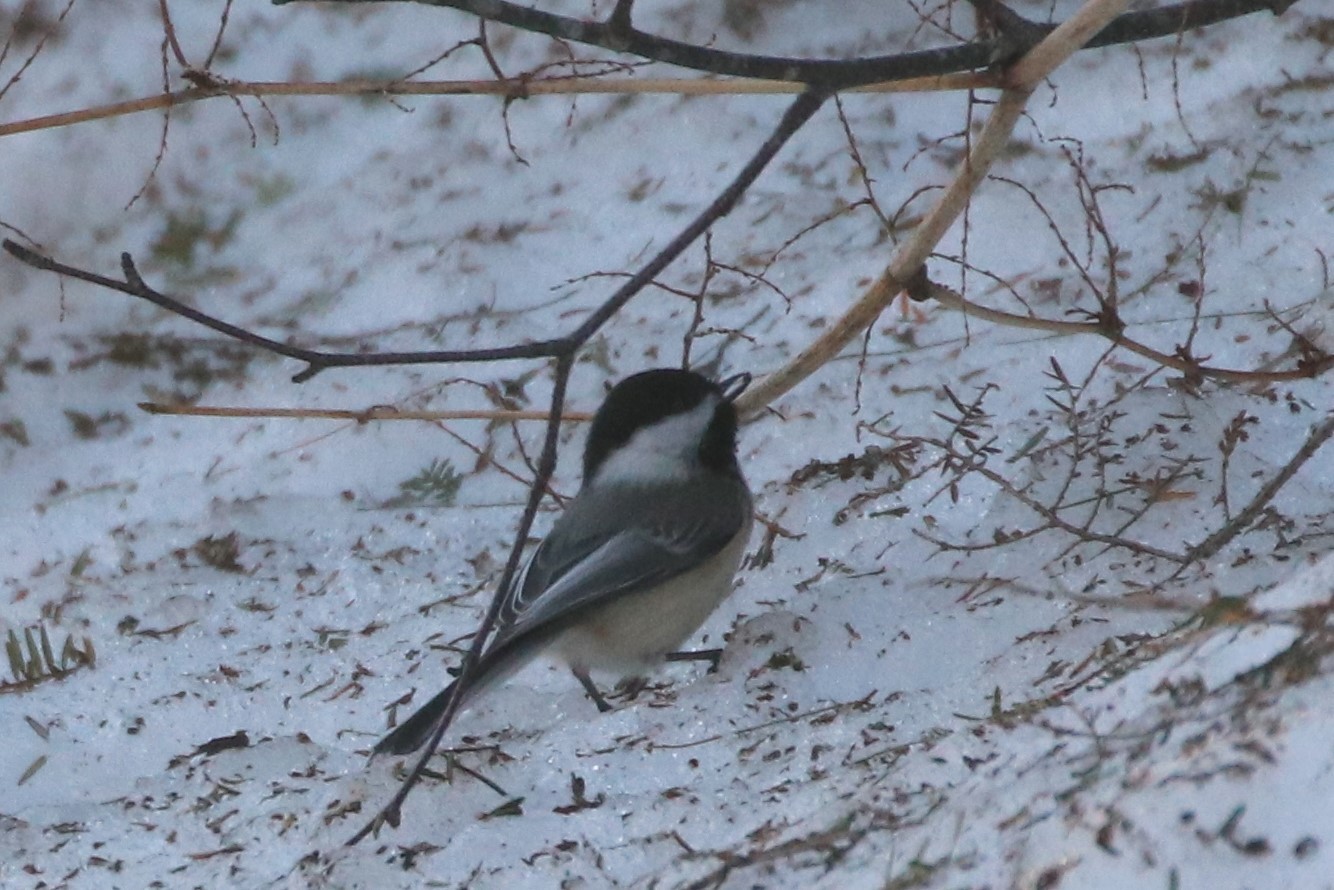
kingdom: Animalia
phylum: Chordata
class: Aves
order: Passeriformes
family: Paridae
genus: Poecile
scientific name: Poecile atricapillus
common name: Black-capped chickadee
